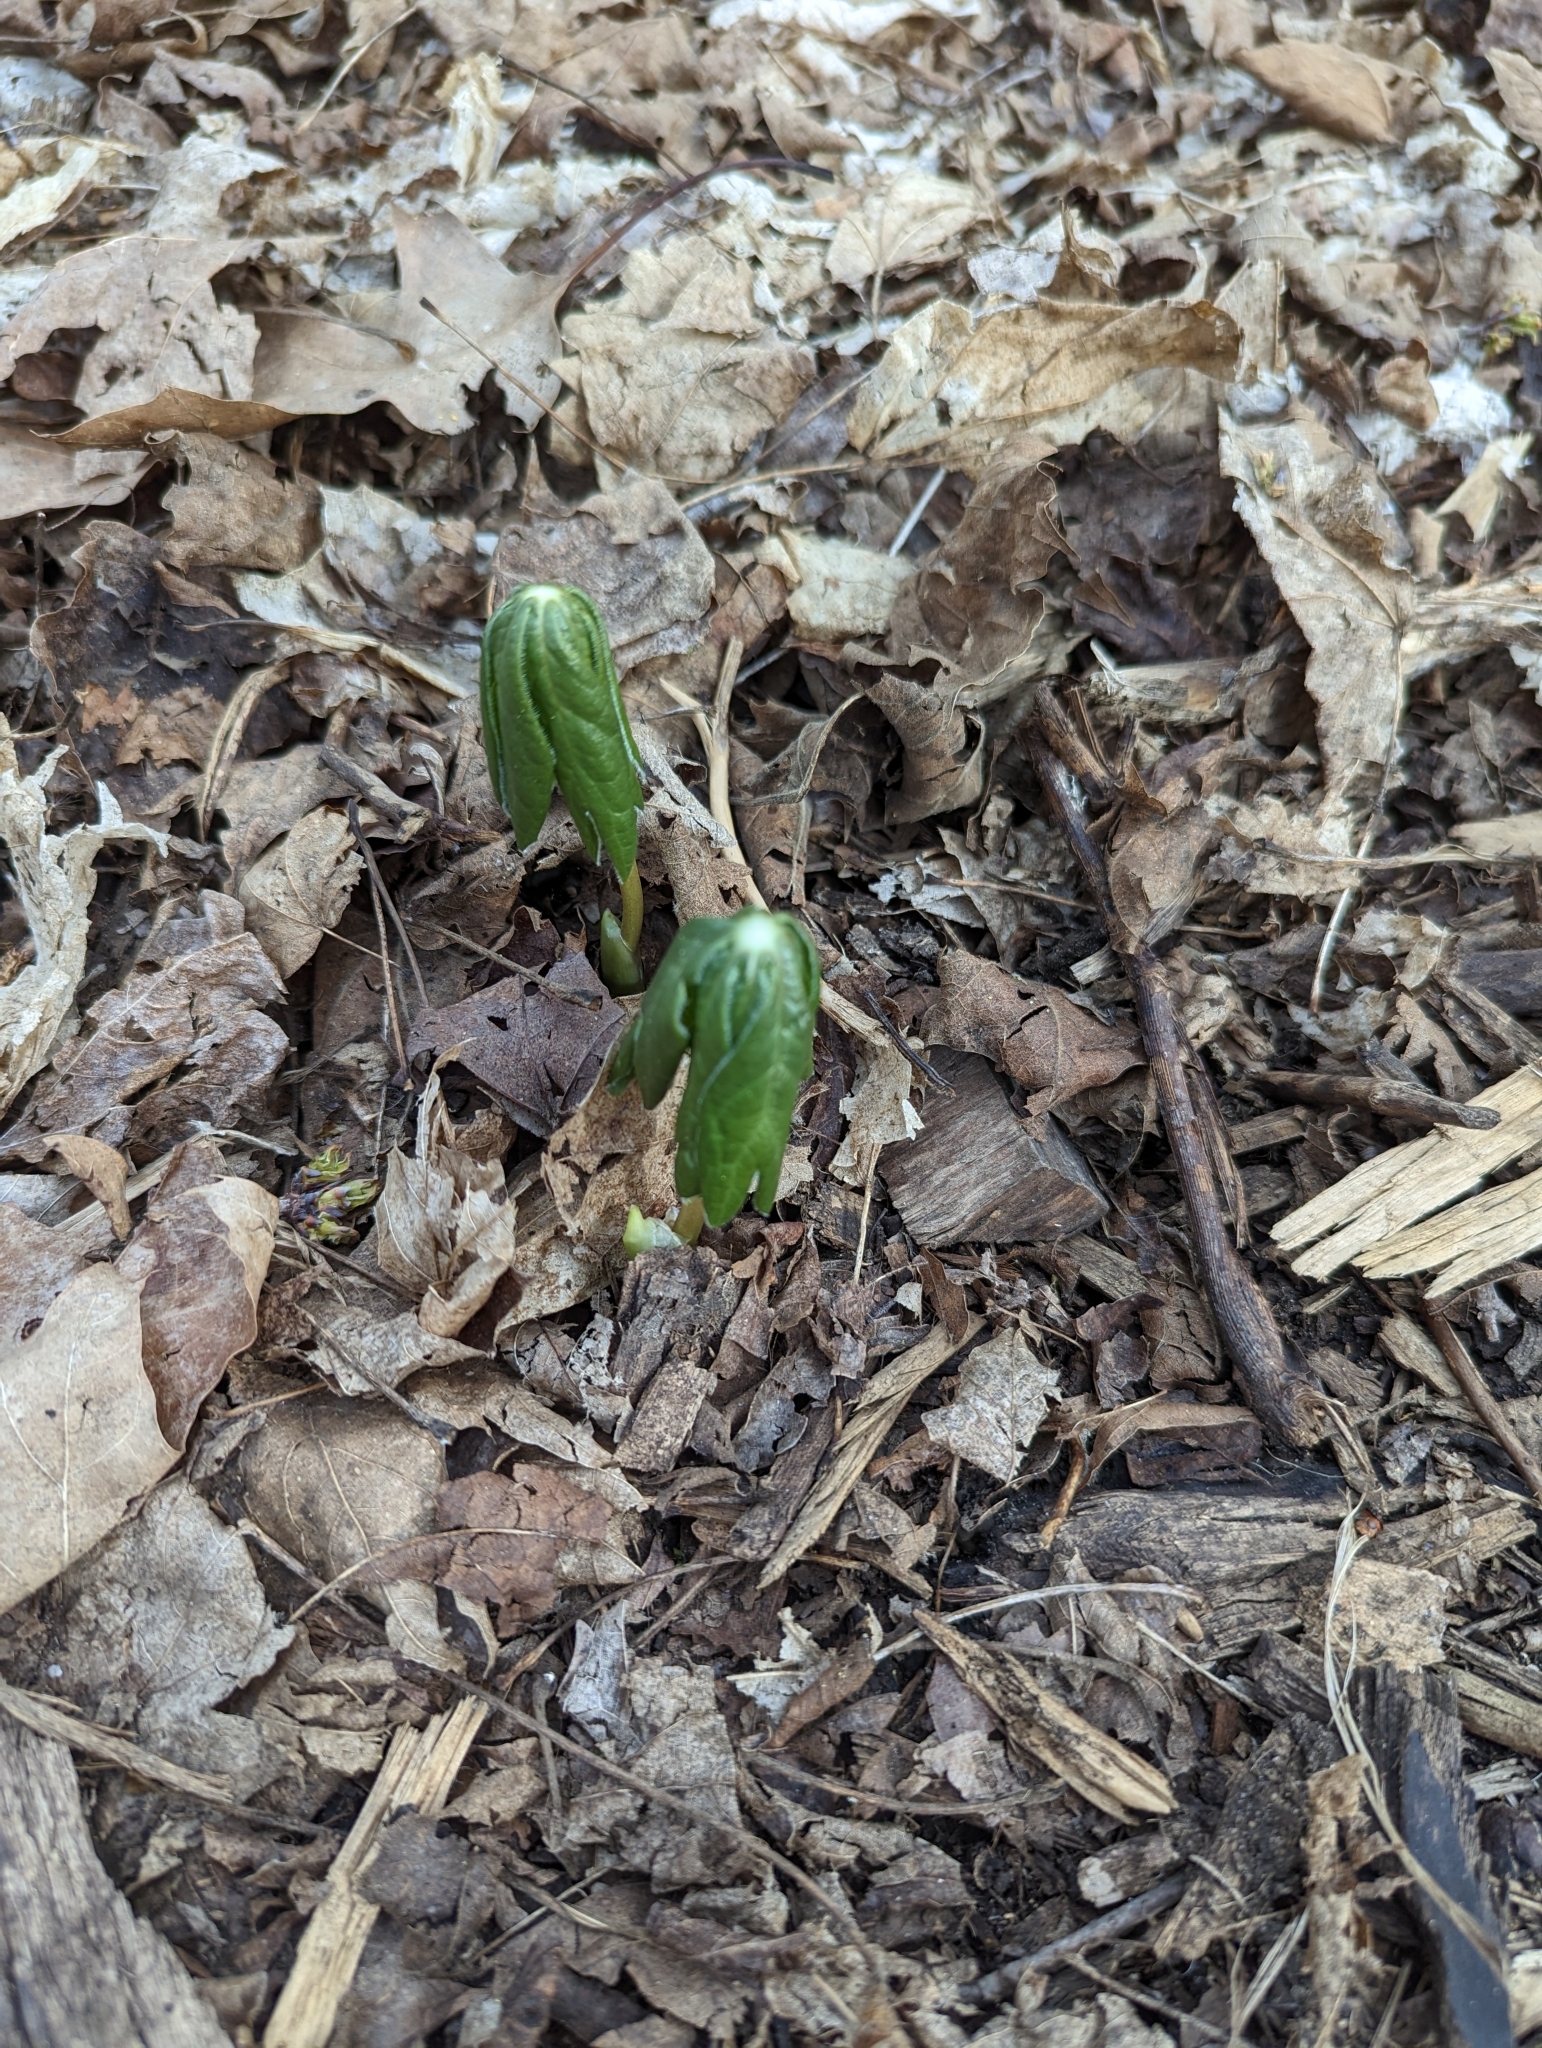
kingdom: Plantae
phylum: Tracheophyta
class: Magnoliopsida
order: Ranunculales
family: Berberidaceae
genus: Podophyllum
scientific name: Podophyllum peltatum
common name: Wild mandrake
